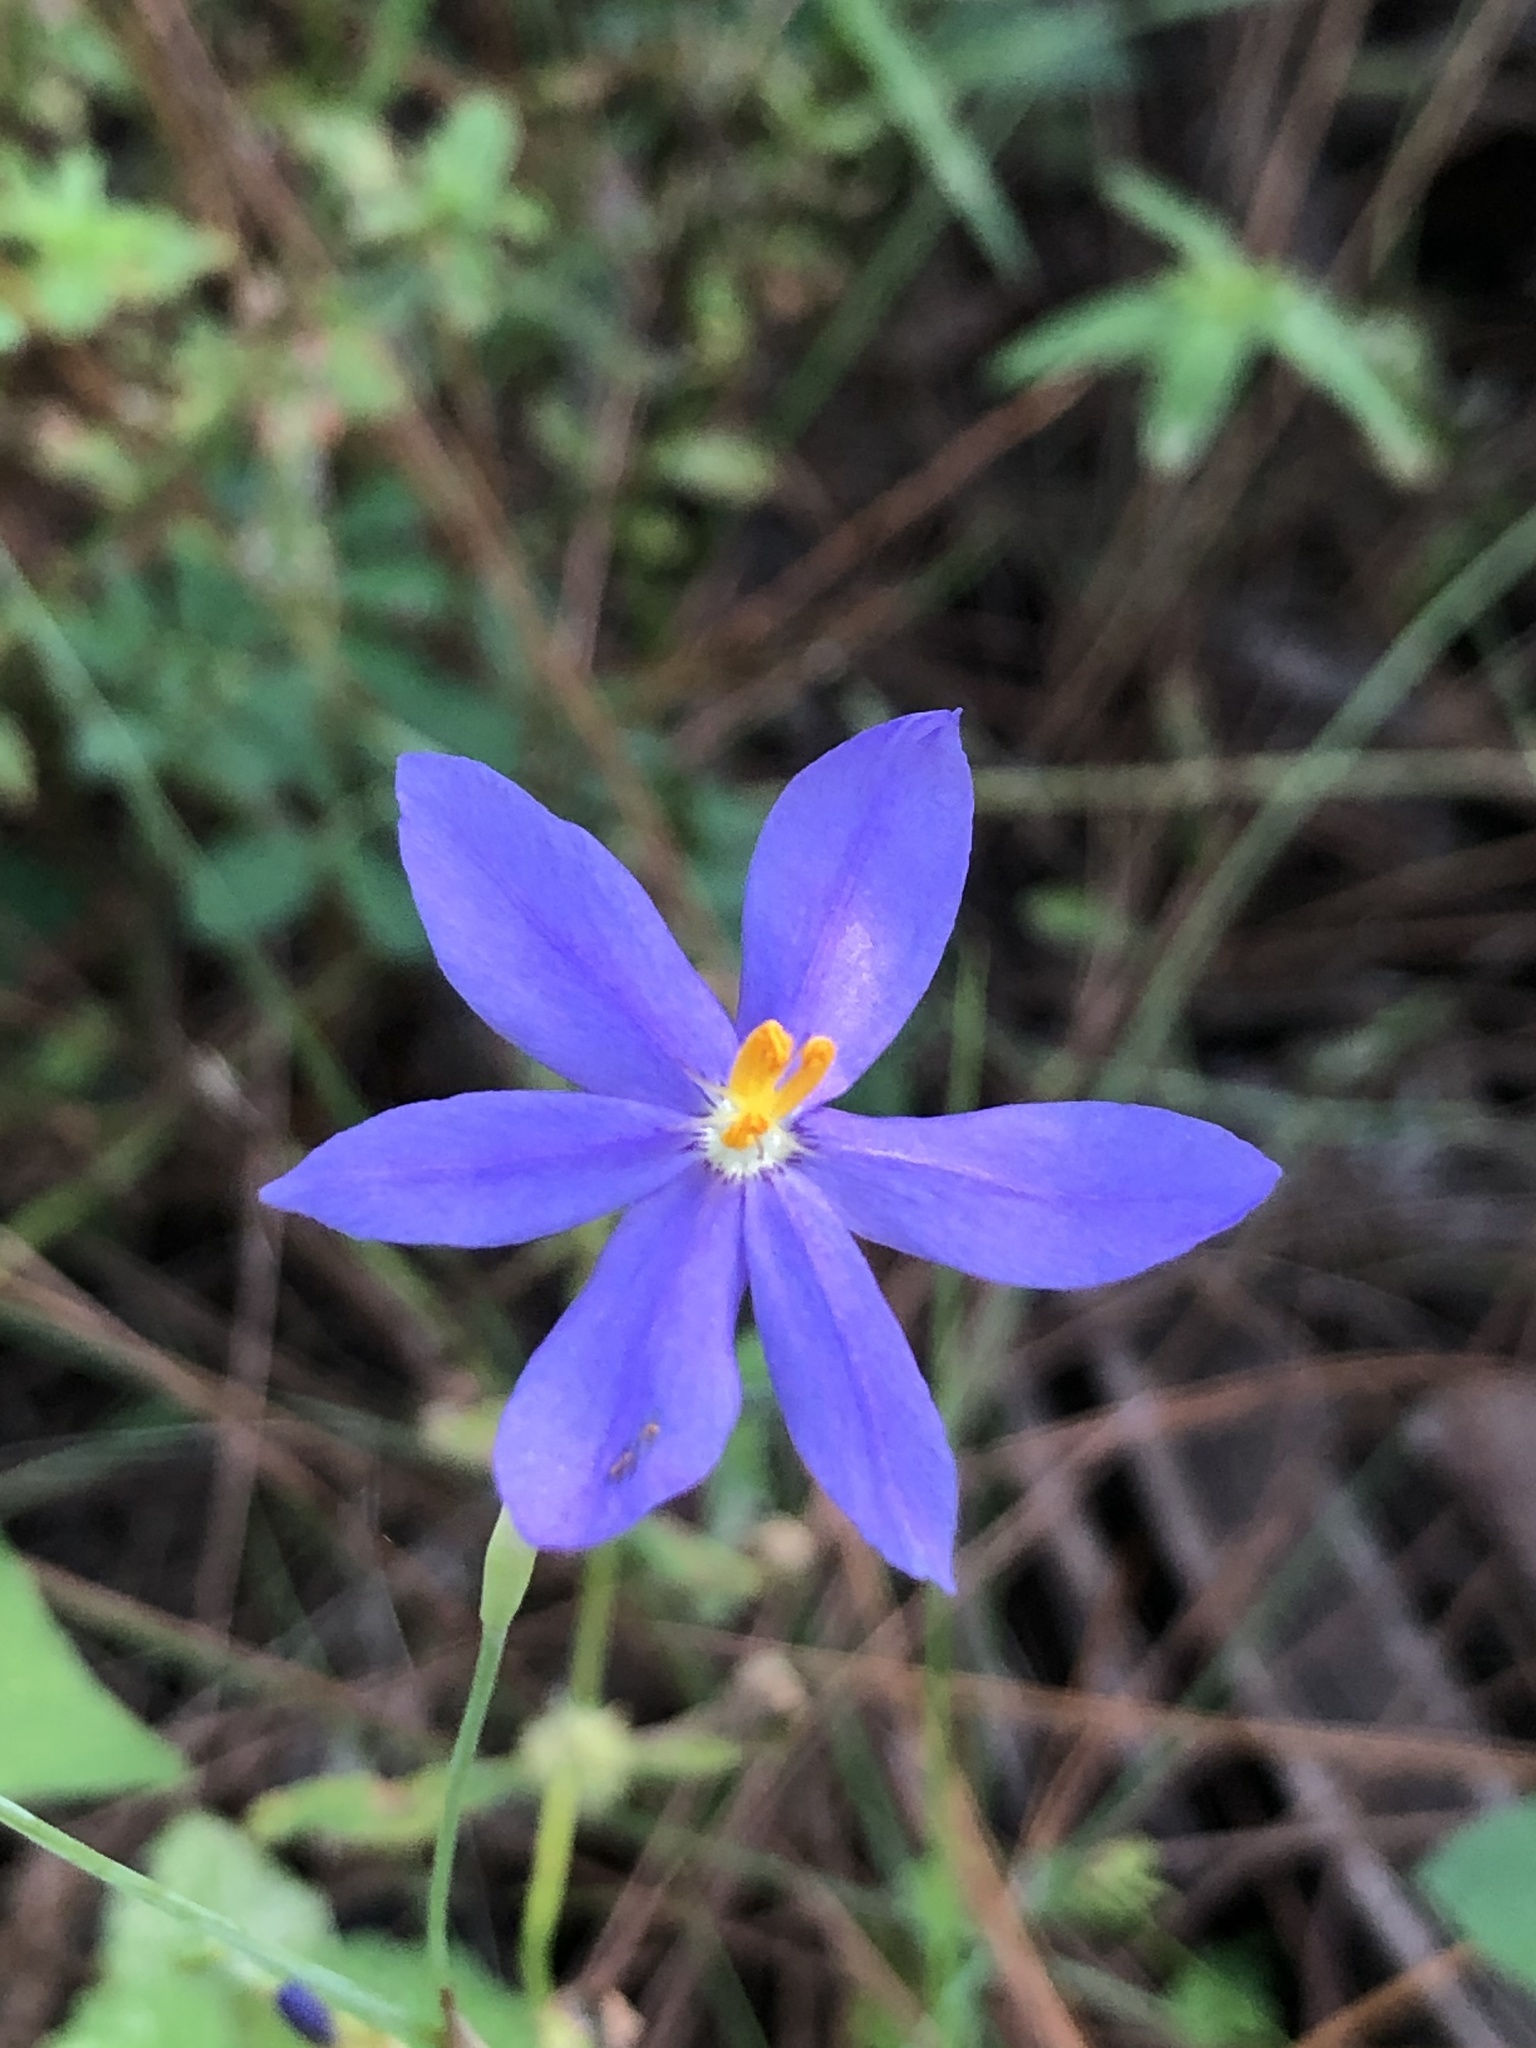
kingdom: Plantae
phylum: Tracheophyta
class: Liliopsida
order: Asparagales
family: Iridaceae
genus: Nemastylis
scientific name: Nemastylis floridana
